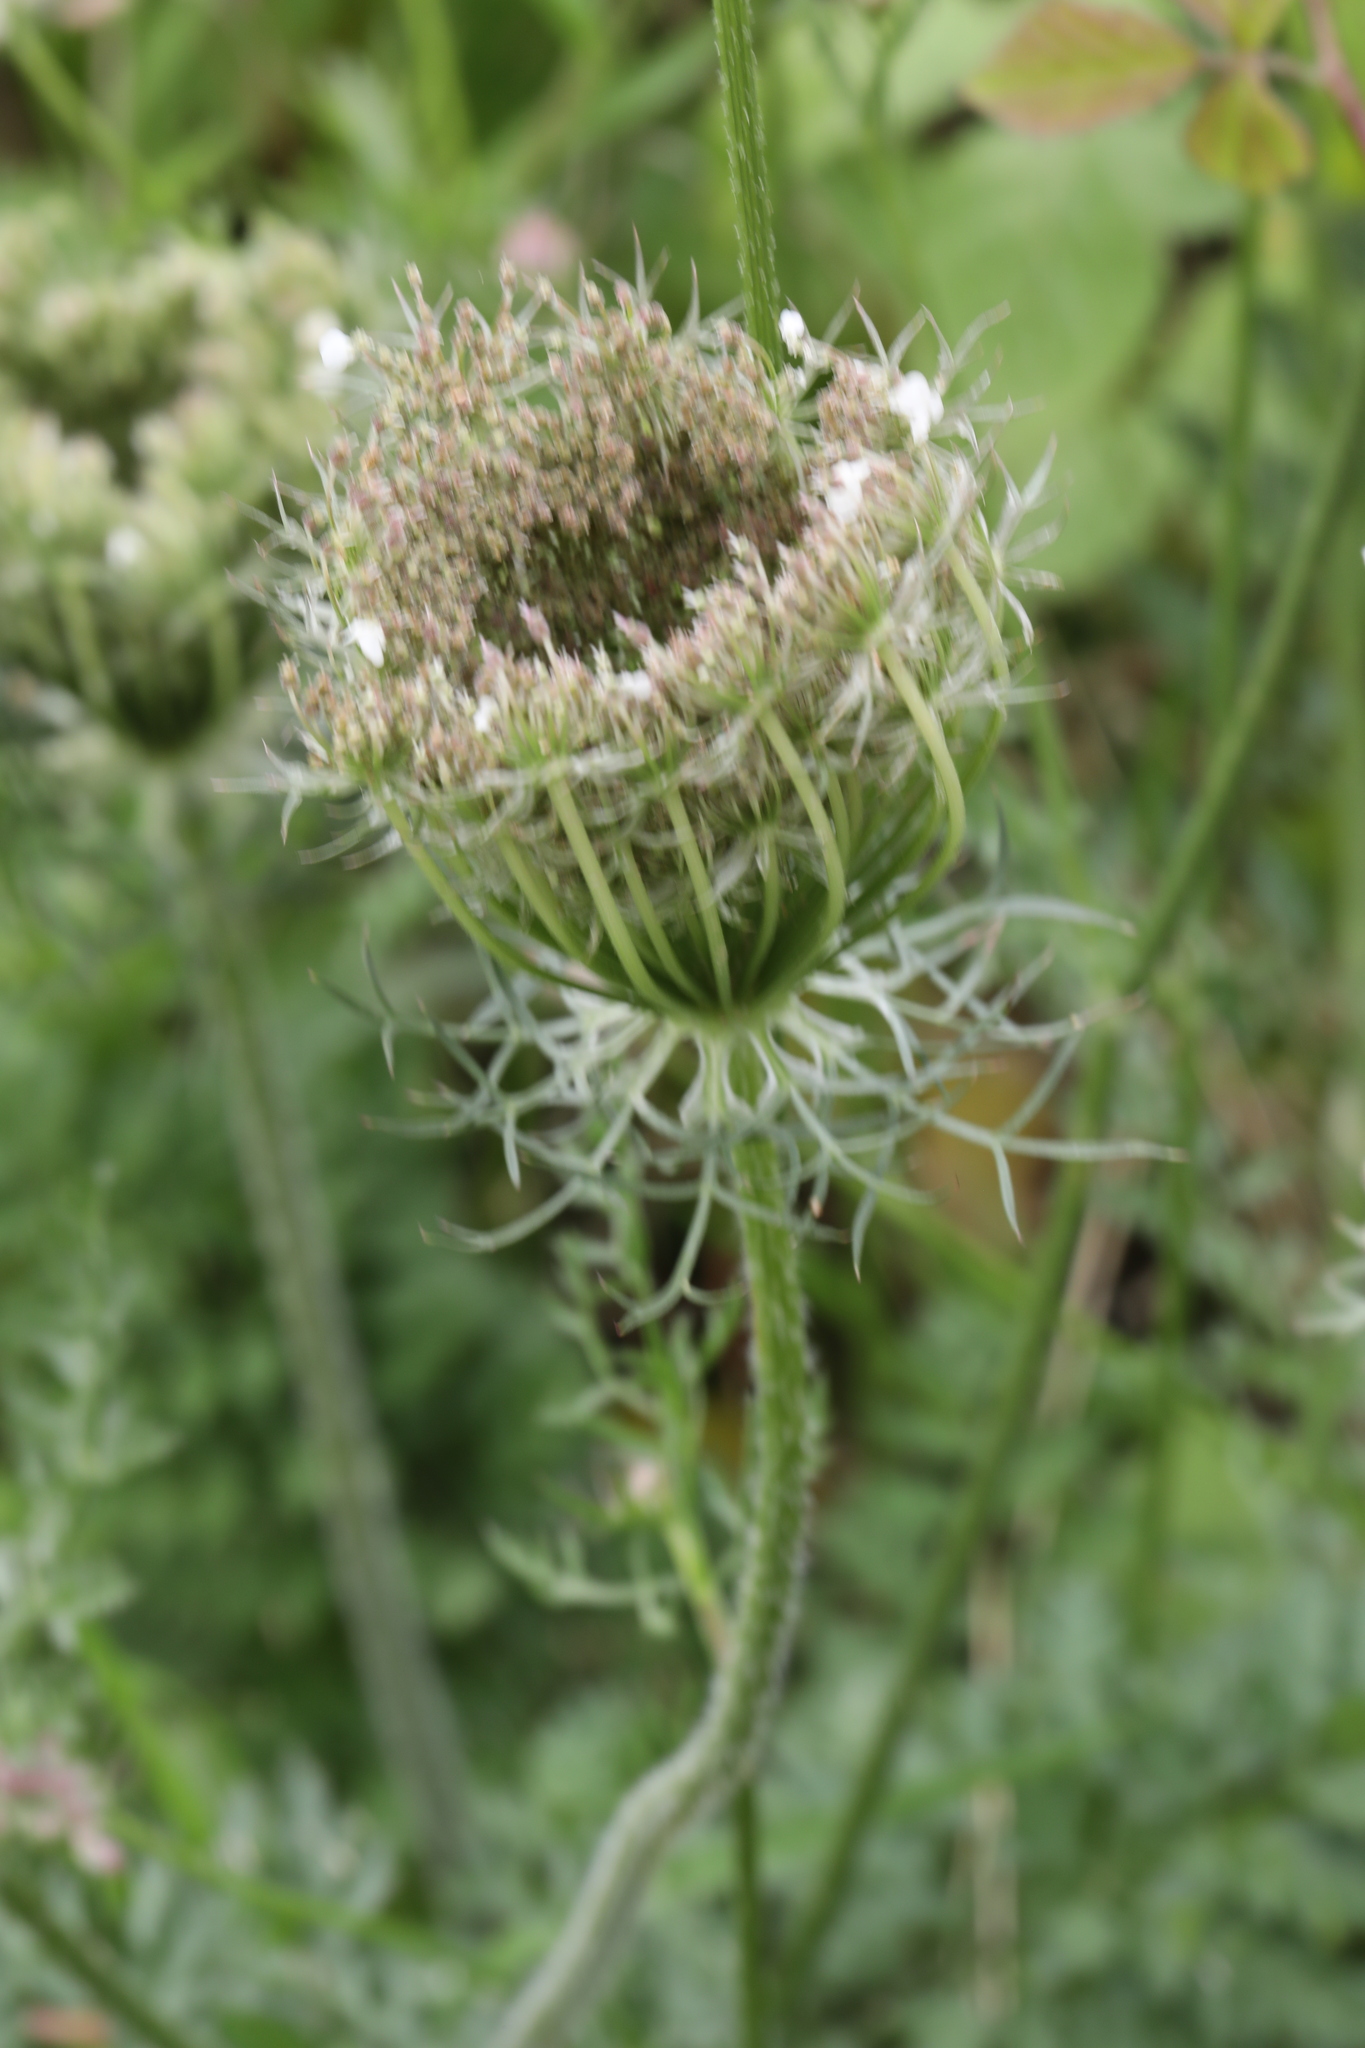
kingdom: Plantae
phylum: Tracheophyta
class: Magnoliopsida
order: Apiales
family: Apiaceae
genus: Daucus
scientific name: Daucus carota
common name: Wild carrot
